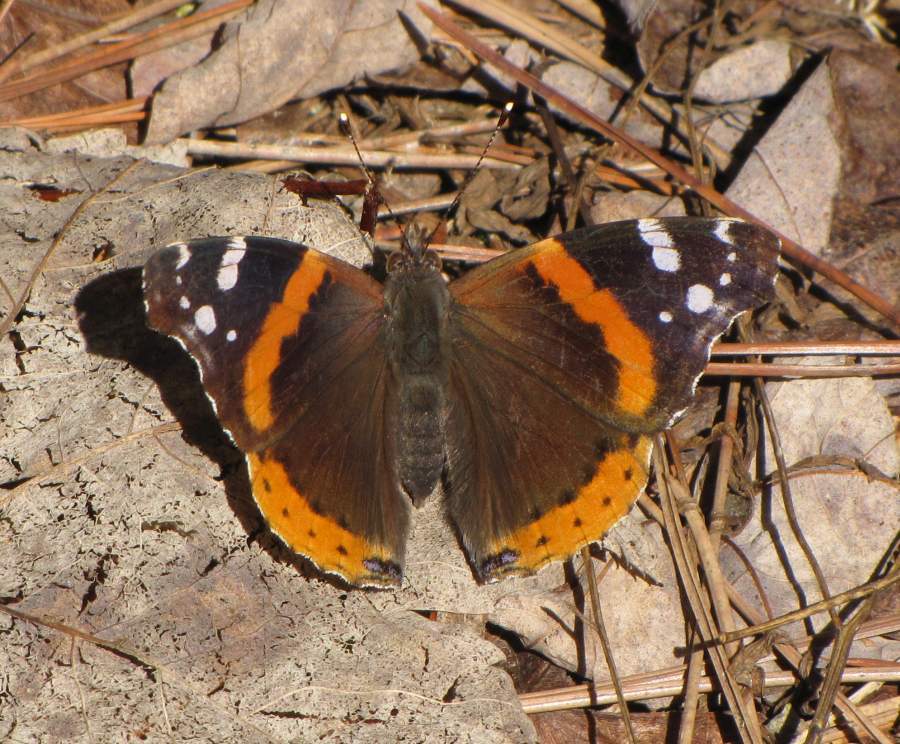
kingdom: Animalia
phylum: Arthropoda
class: Insecta
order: Lepidoptera
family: Nymphalidae
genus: Vanessa
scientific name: Vanessa atalanta
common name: Red admiral
